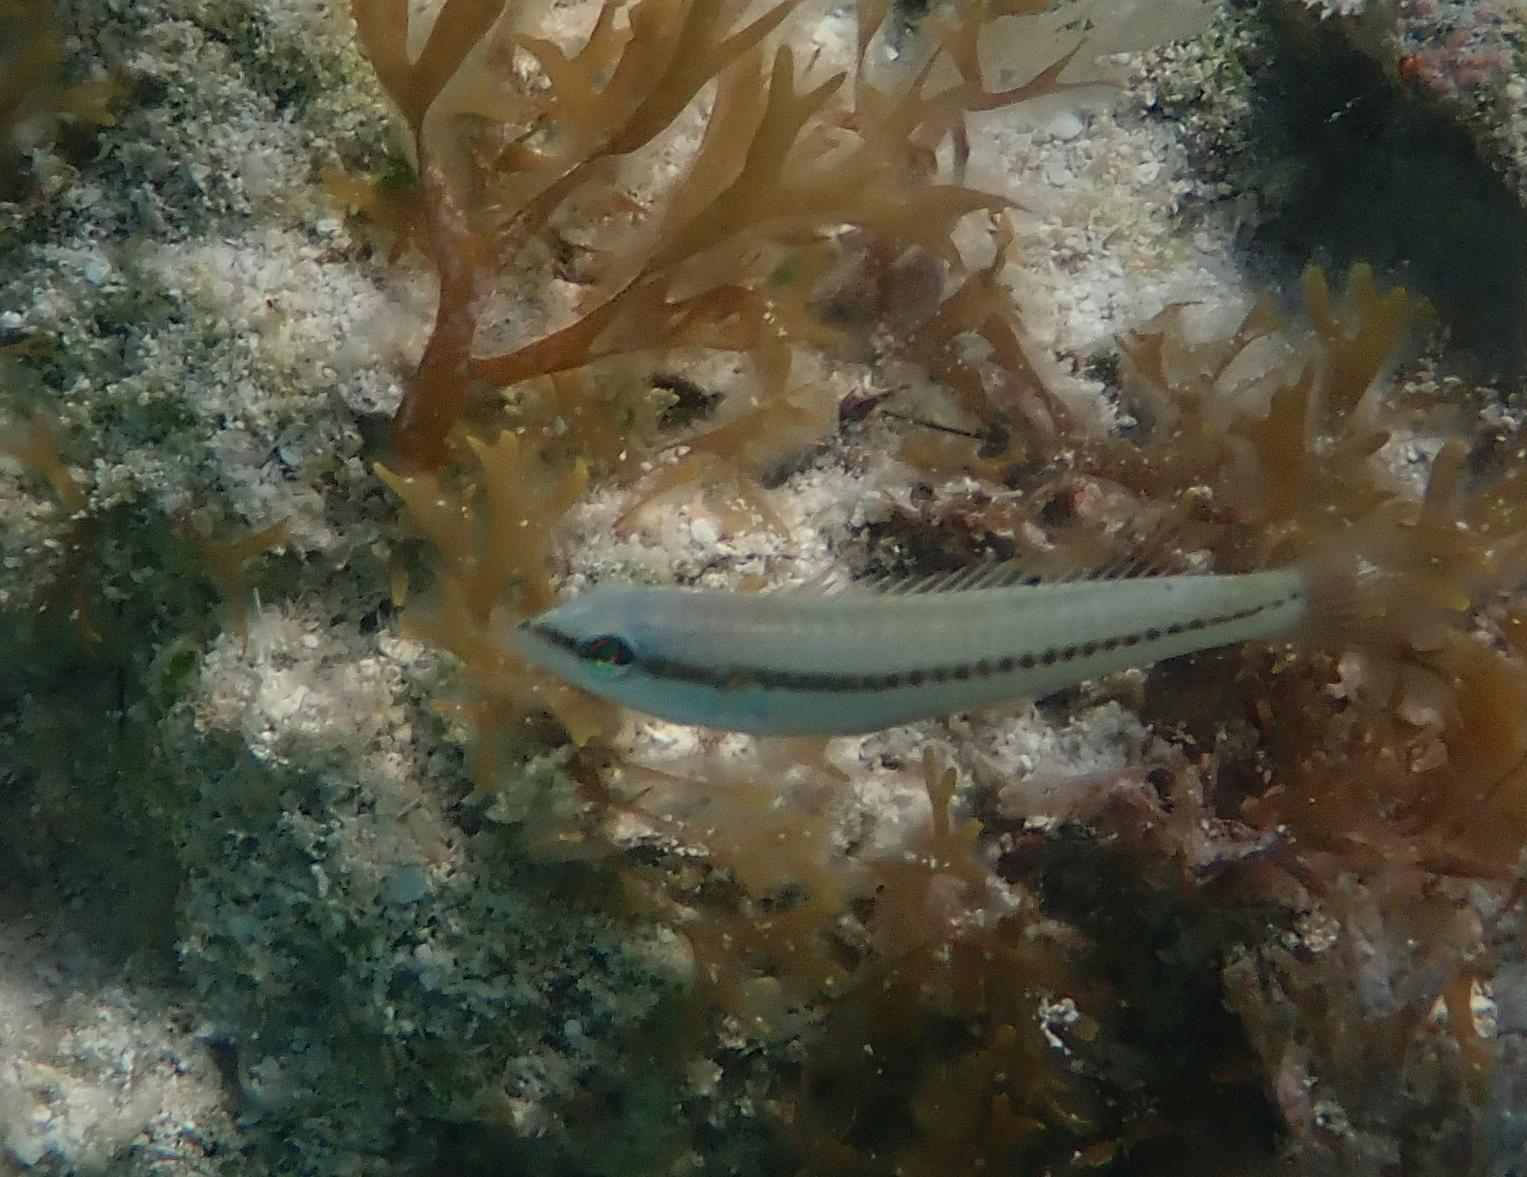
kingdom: Animalia
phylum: Chordata
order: Perciformes
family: Labridae
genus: Halichoeres
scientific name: Halichoeres bivittatus
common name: Slippery dick
